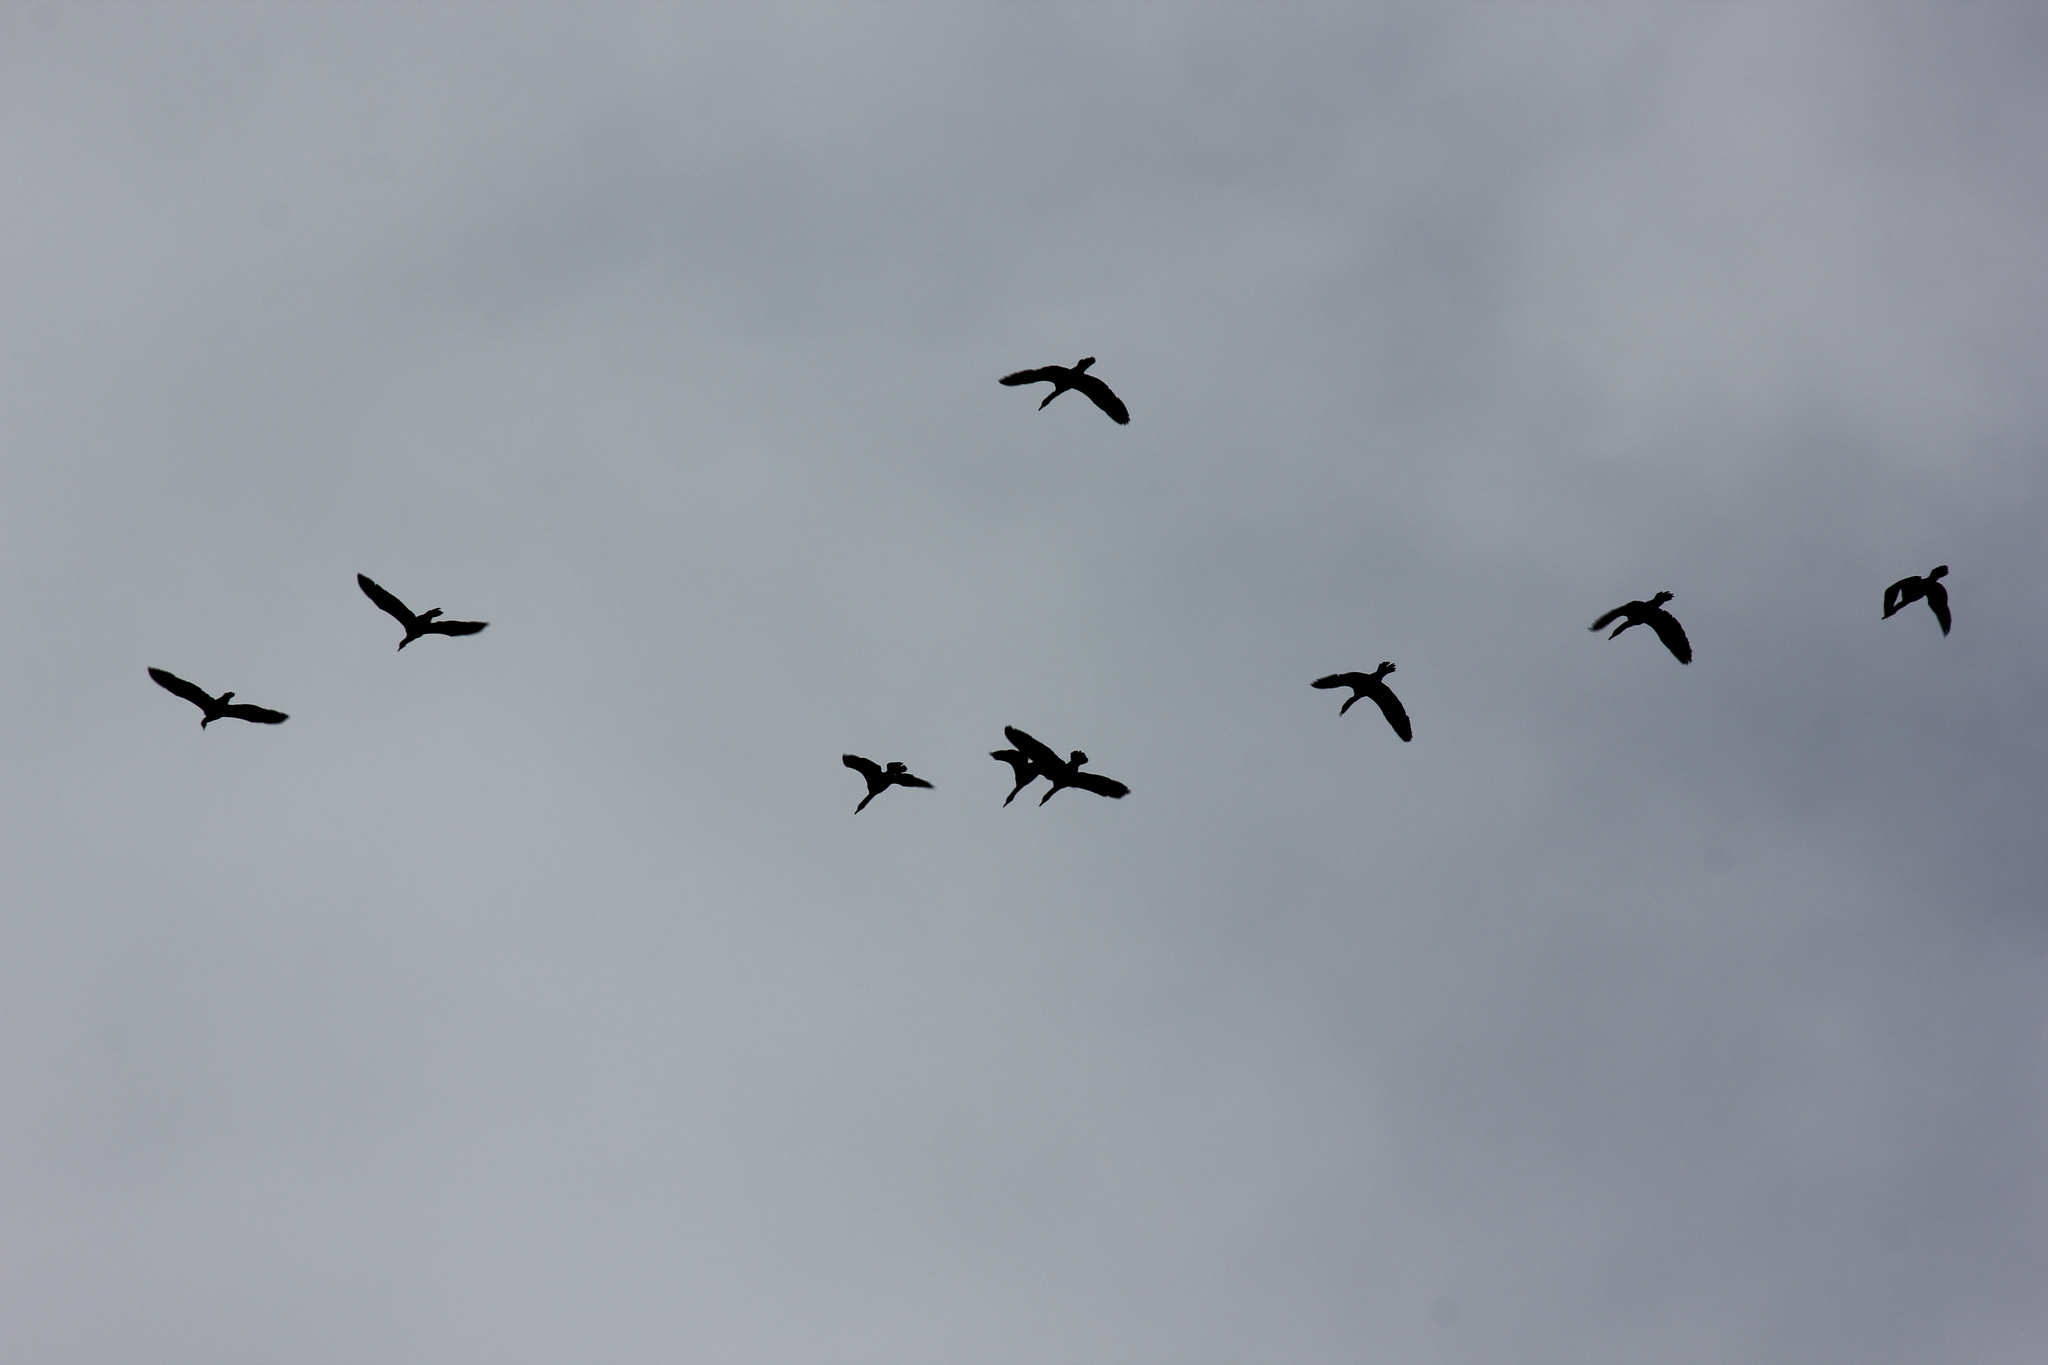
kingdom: Animalia
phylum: Chordata
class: Aves
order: Suliformes
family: Phalacrocoracidae
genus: Phalacrocorax
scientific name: Phalacrocorax auritus
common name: Double-crested cormorant
